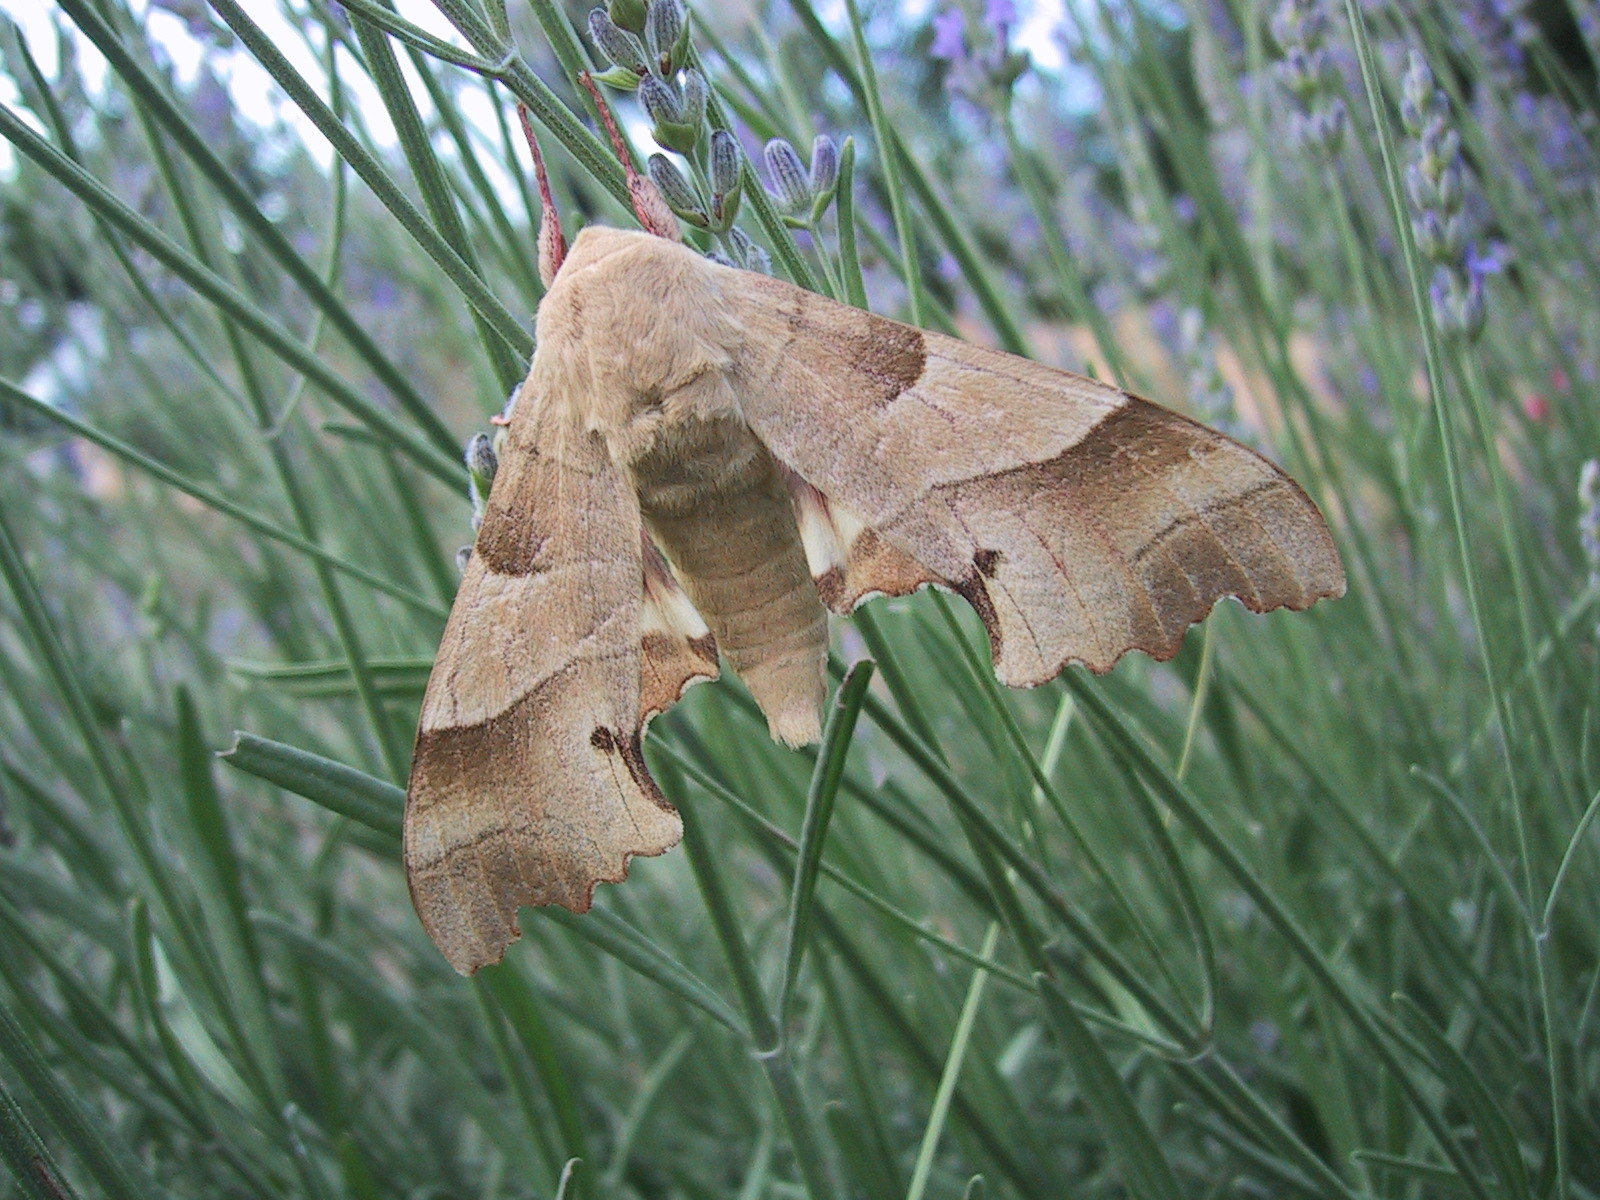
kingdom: Animalia
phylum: Arthropoda
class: Insecta
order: Lepidoptera
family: Sphingidae
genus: Marumba
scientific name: Marumba quercus
